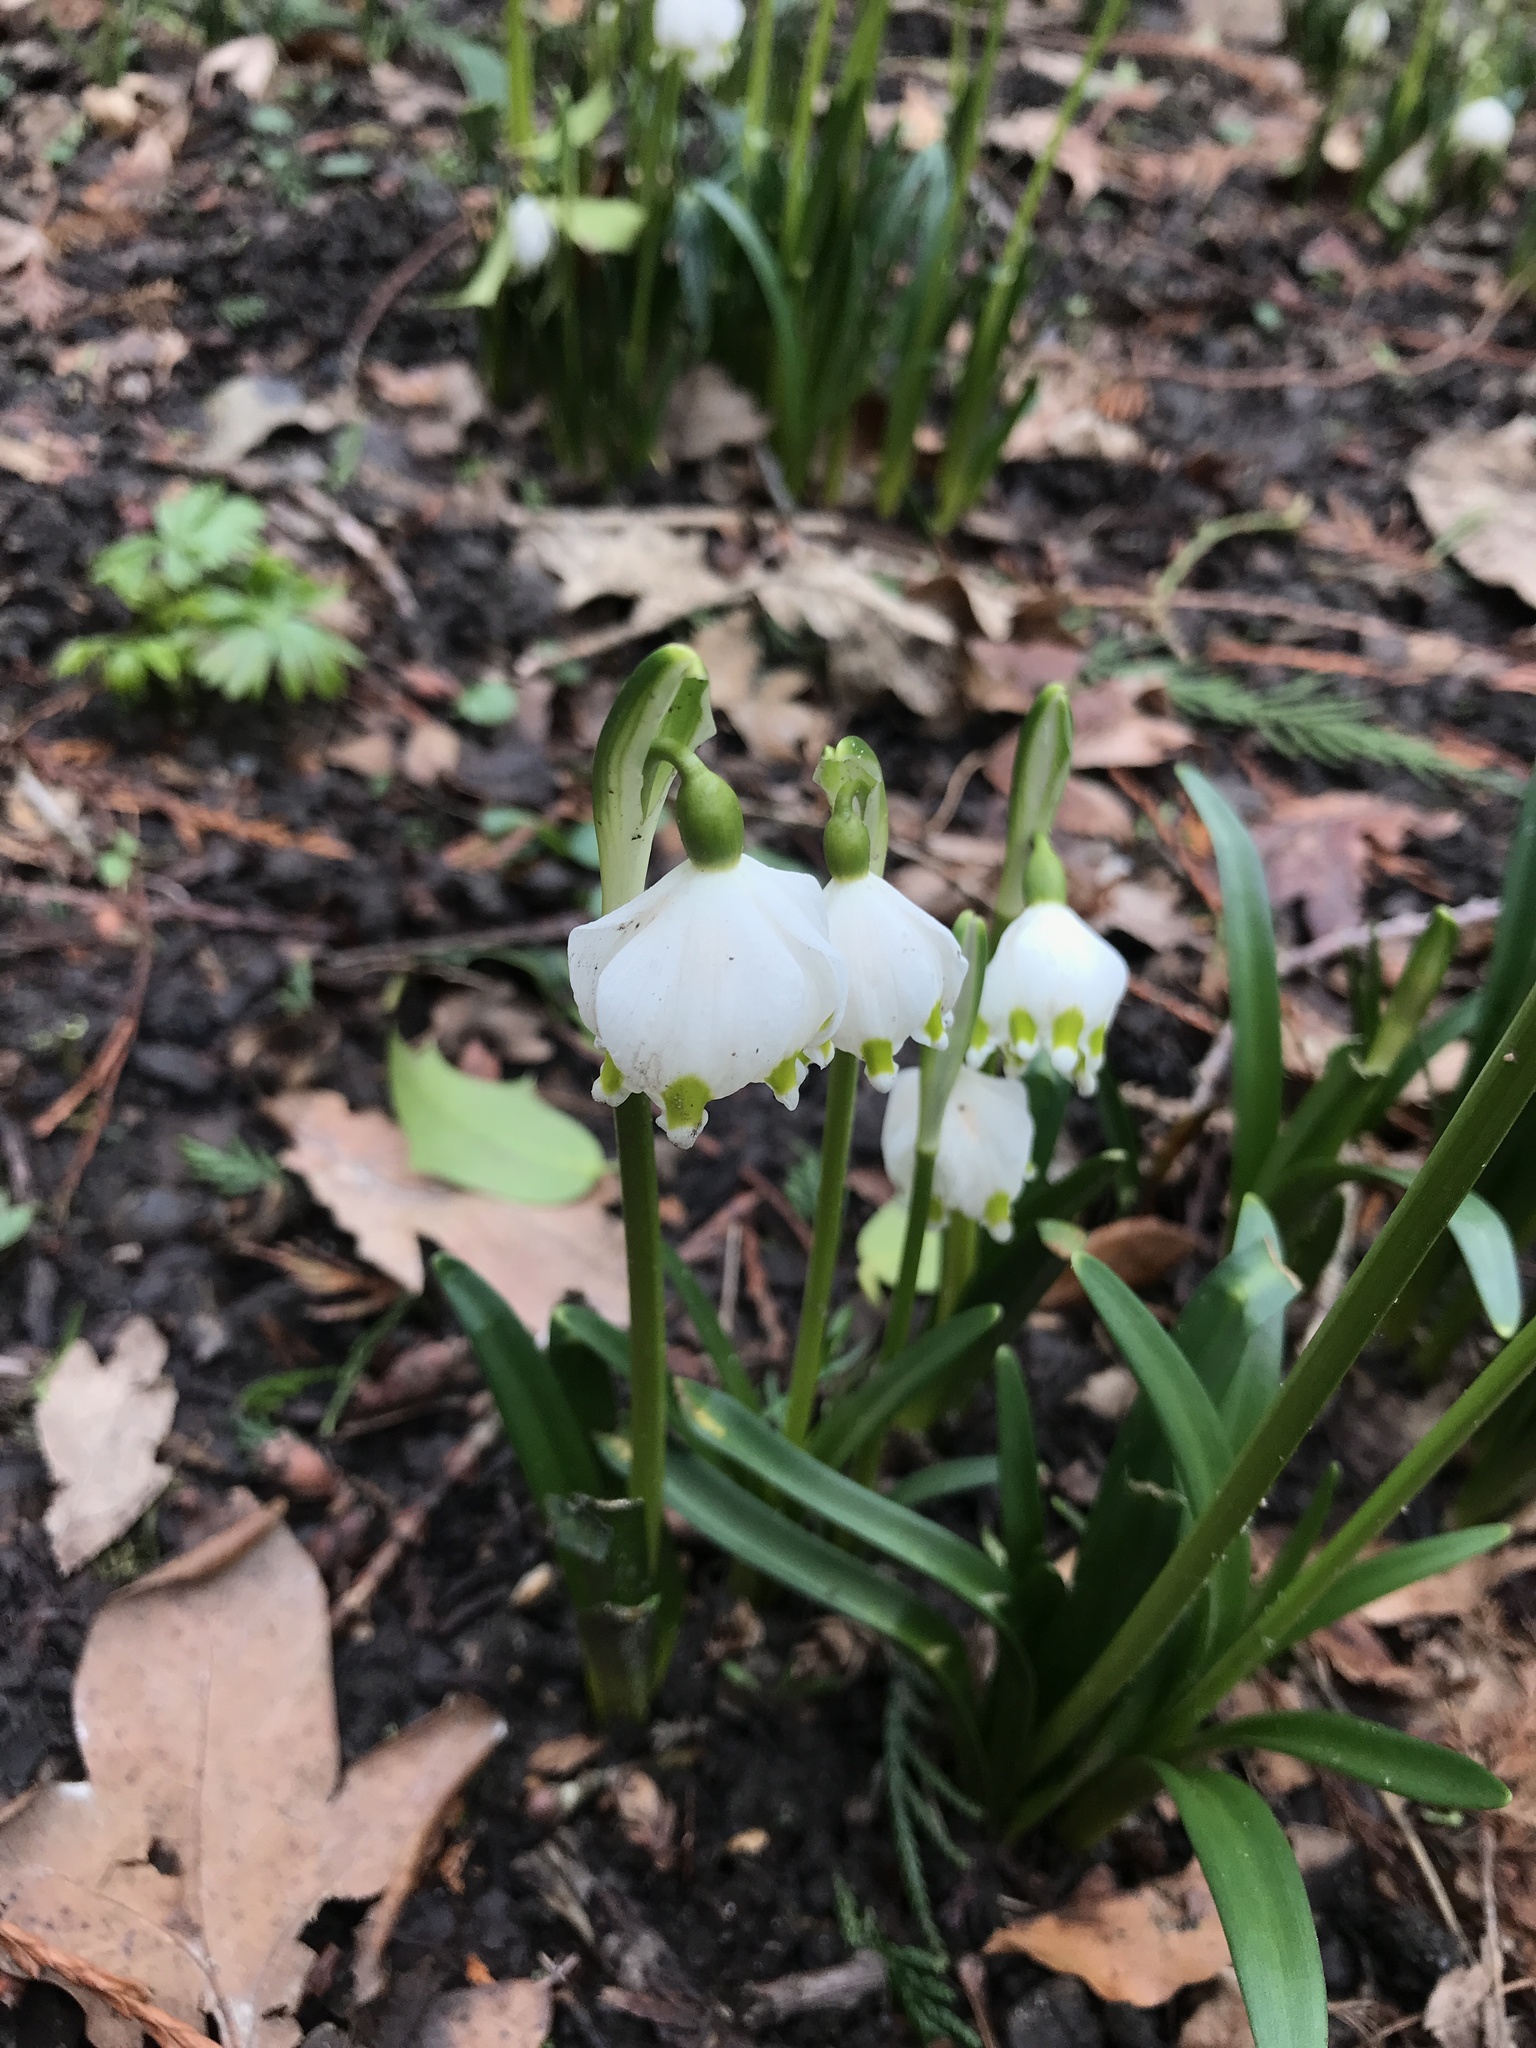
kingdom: Plantae
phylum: Tracheophyta
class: Liliopsida
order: Asparagales
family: Amaryllidaceae
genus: Leucojum
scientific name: Leucojum vernum
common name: Spring snowflake
